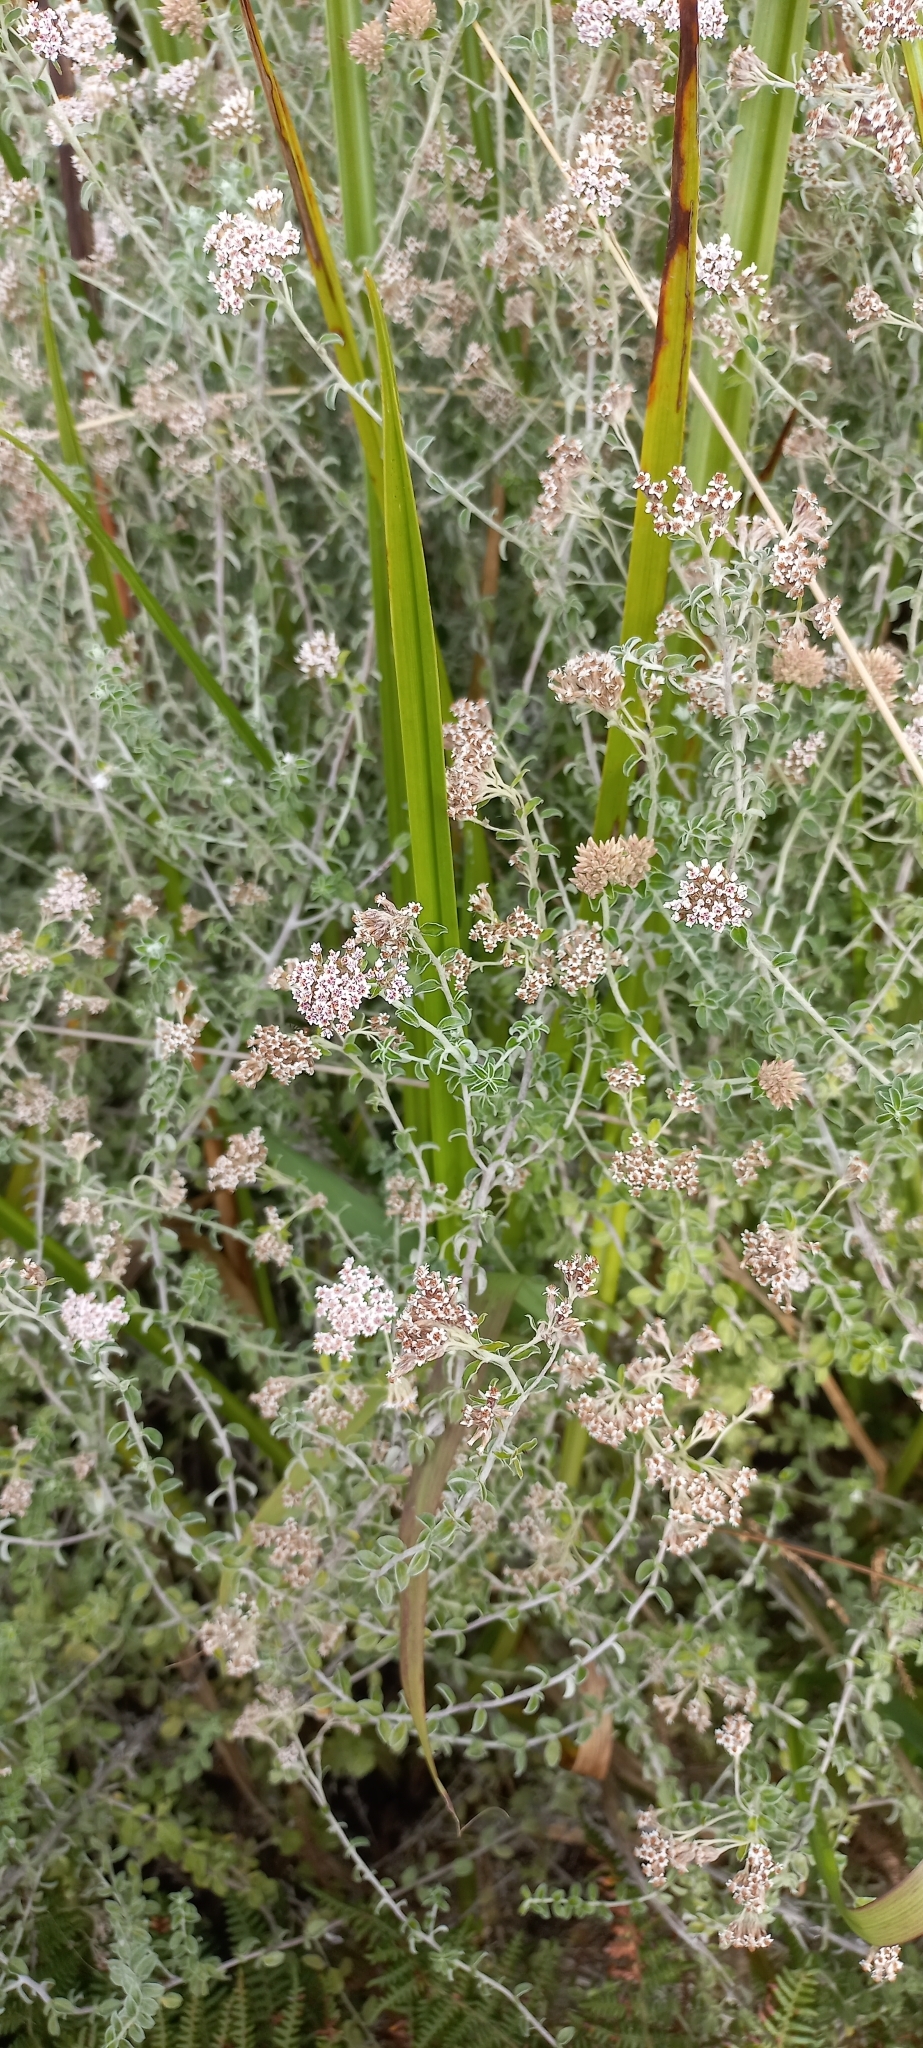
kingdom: Plantae
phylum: Tracheophyta
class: Magnoliopsida
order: Asterales
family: Asteraceae
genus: Plecostachys
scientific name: Plecostachys serpyllifolia
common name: Petite licorice
